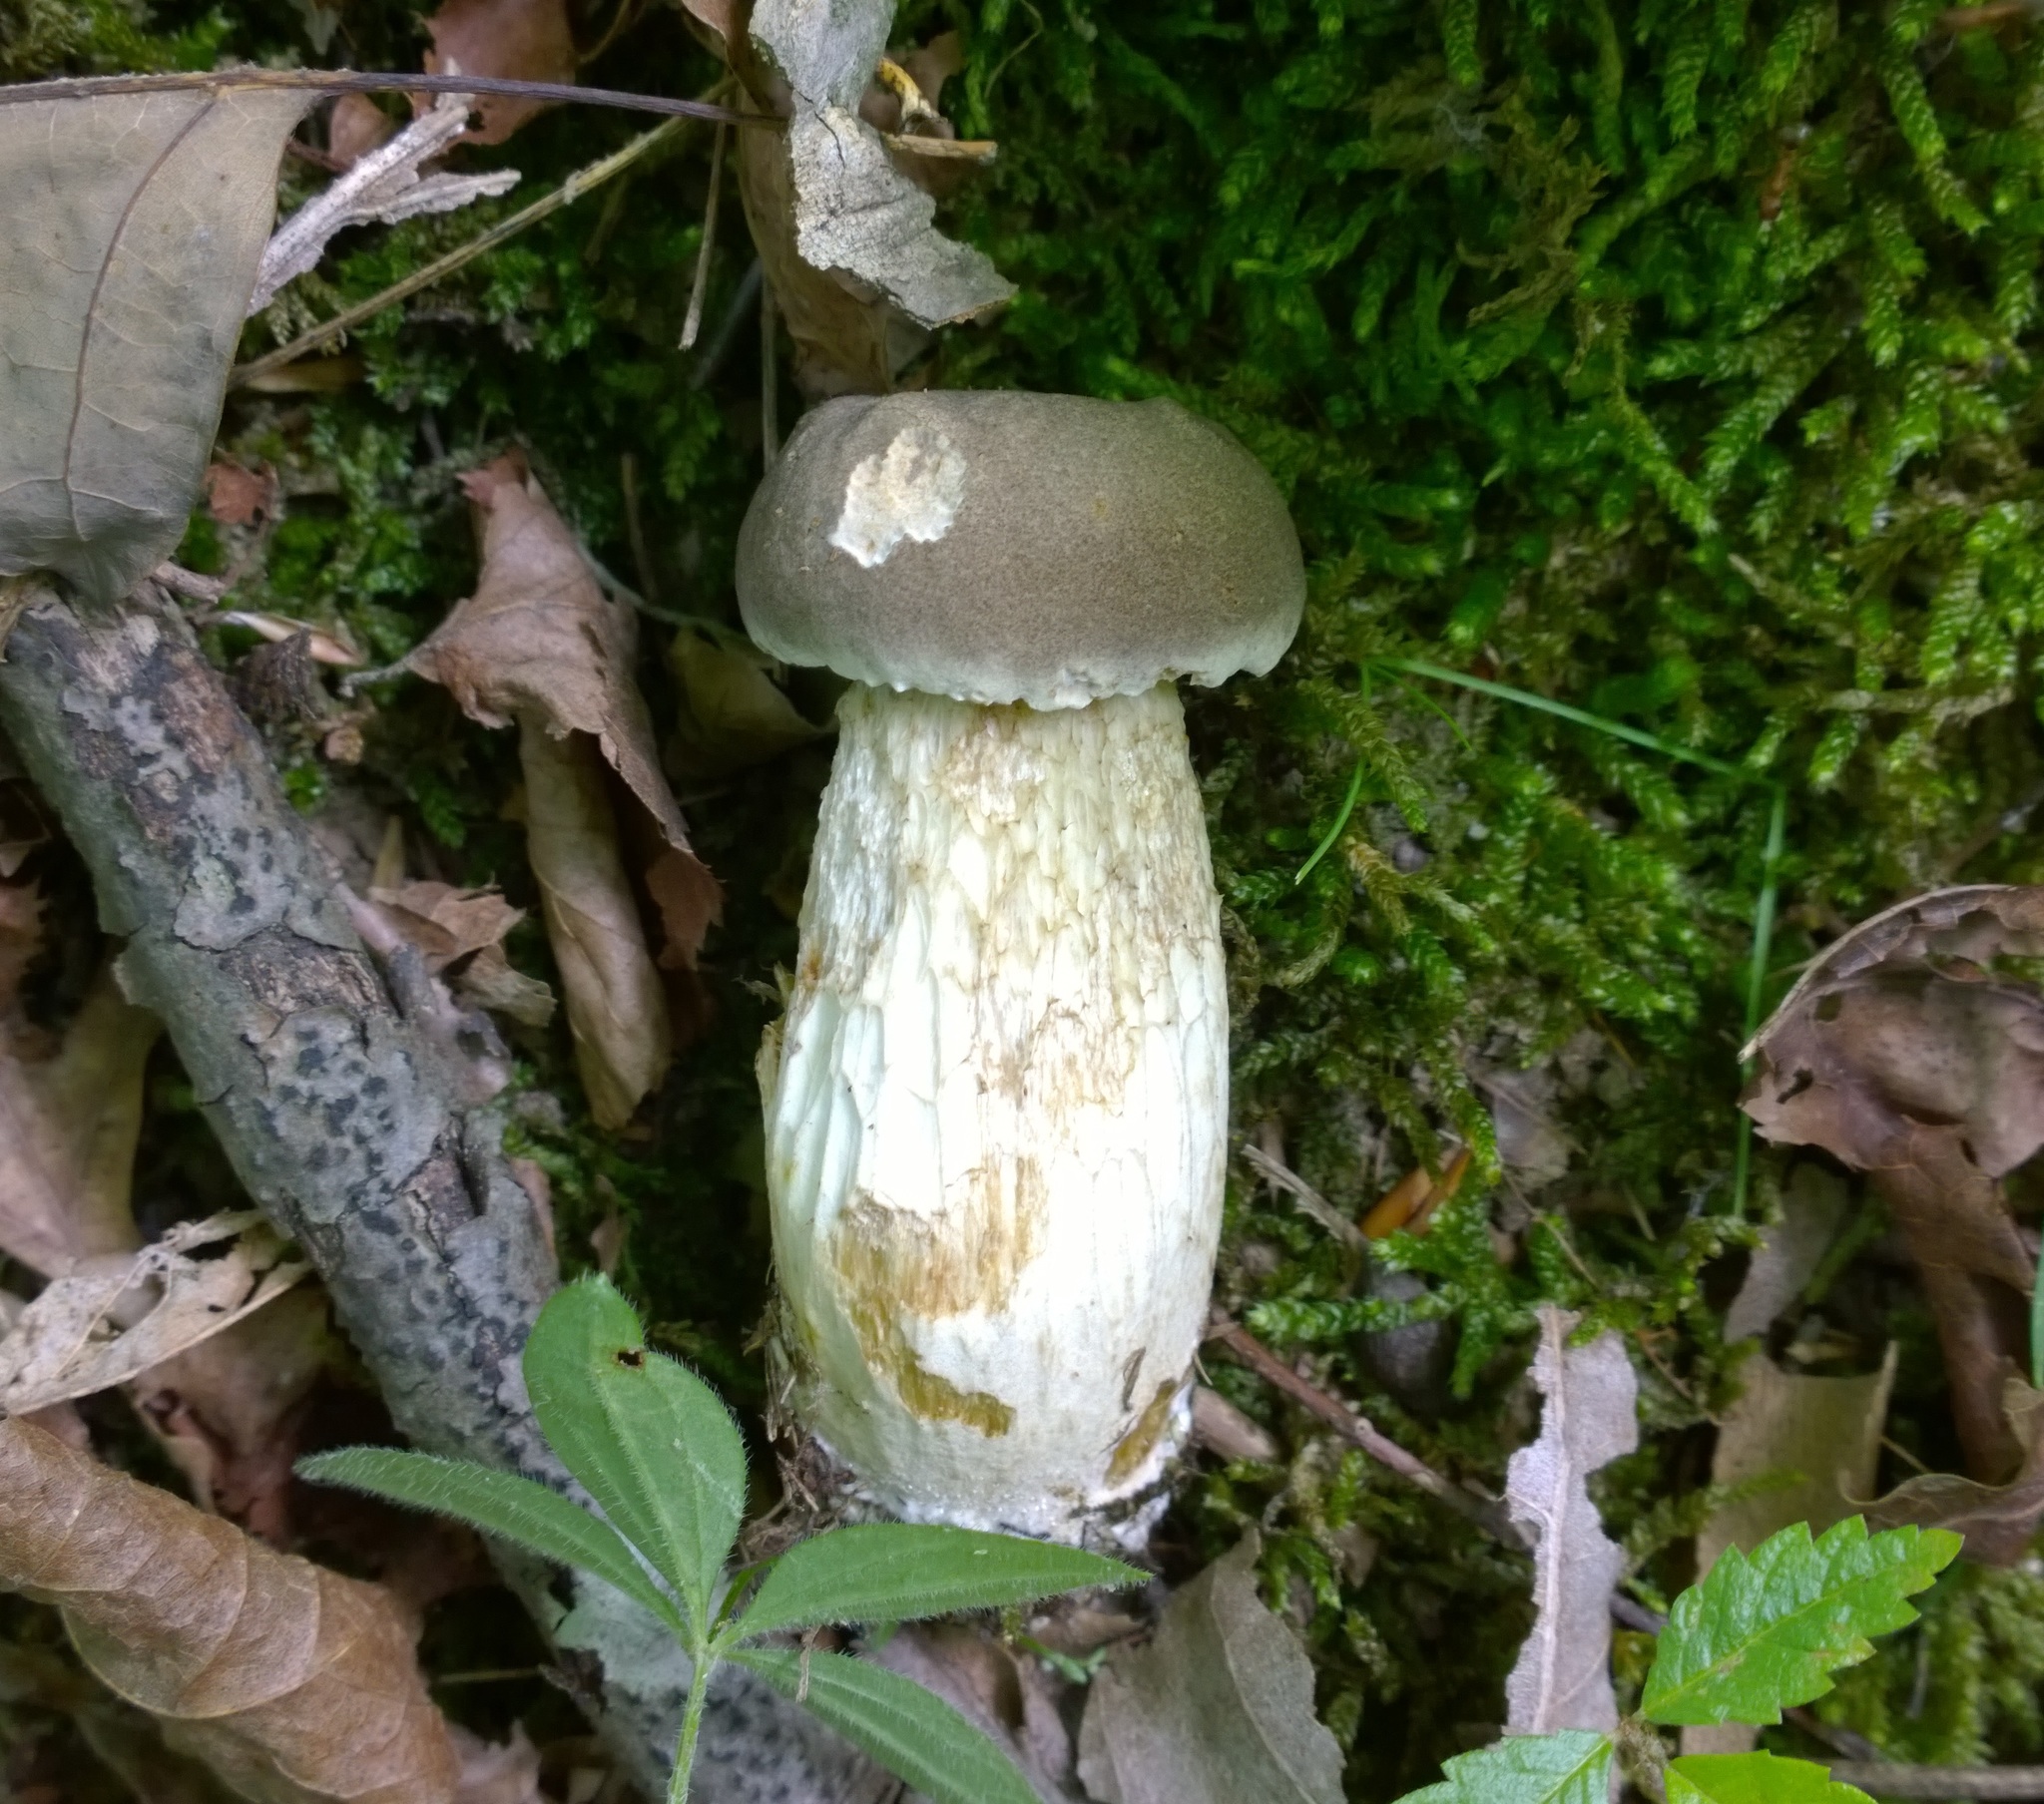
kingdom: Fungi
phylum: Basidiomycota
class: Agaricomycetes
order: Boletales
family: Boletaceae
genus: Retiboletus
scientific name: Retiboletus griseus
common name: Grey bolete
